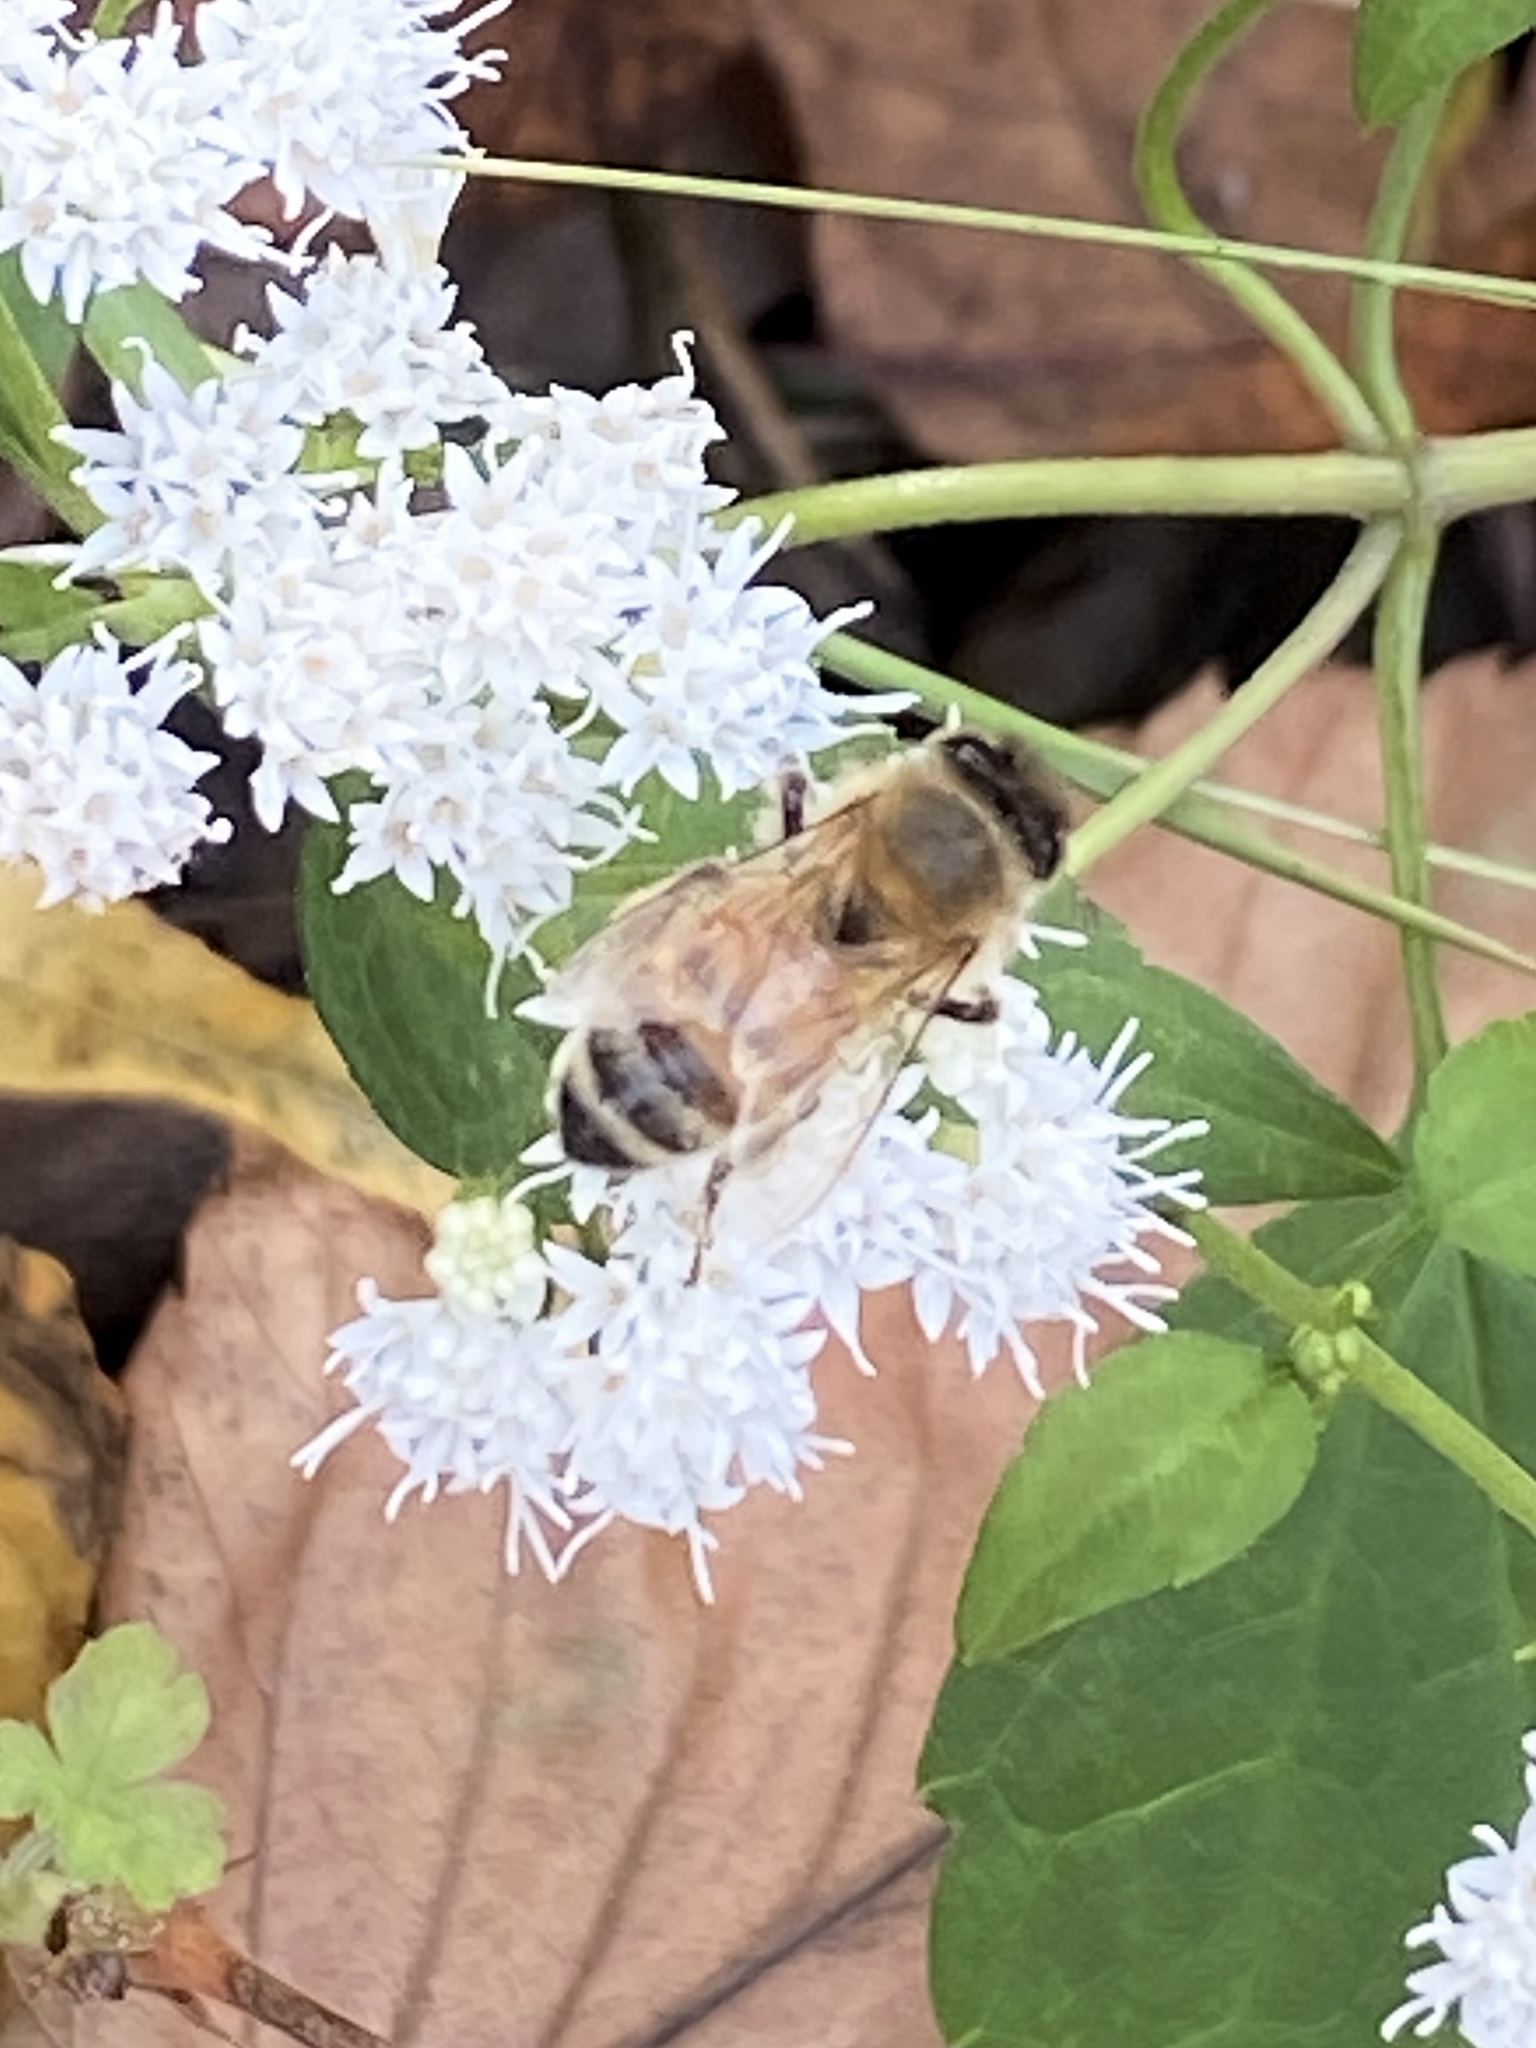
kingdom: Animalia
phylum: Arthropoda
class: Insecta
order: Hymenoptera
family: Apidae
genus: Apis
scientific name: Apis mellifera
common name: Honey bee
